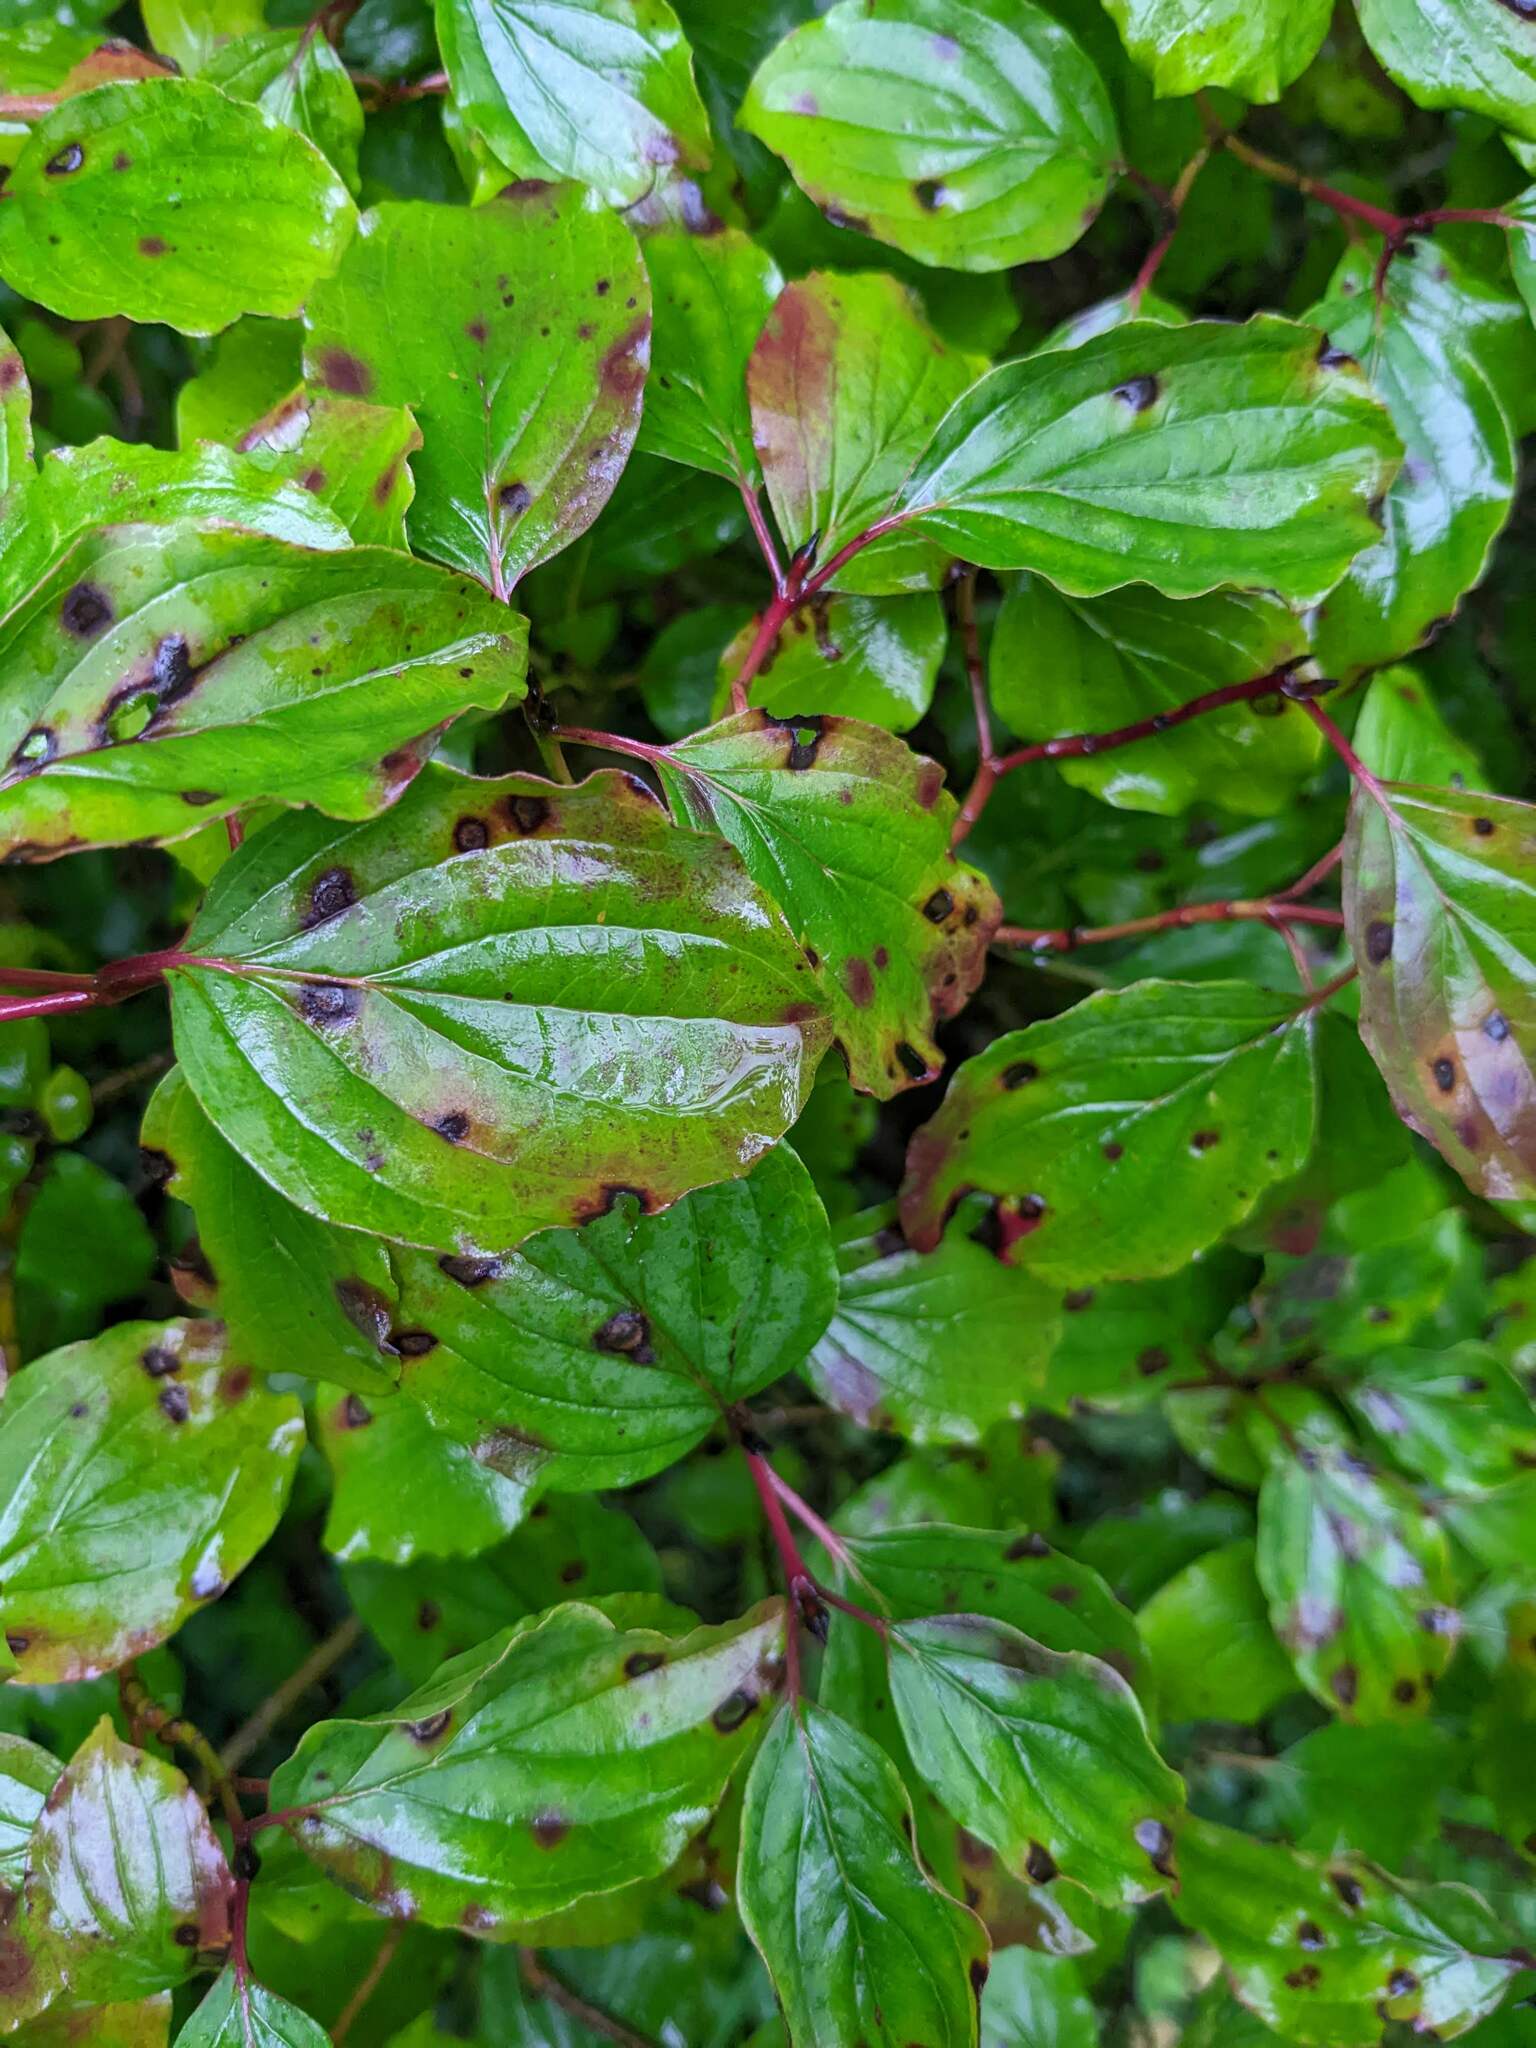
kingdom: Plantae
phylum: Tracheophyta
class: Magnoliopsida
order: Cornales
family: Cornaceae
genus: Cornus
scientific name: Cornus sanguinea
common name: Dogwood
